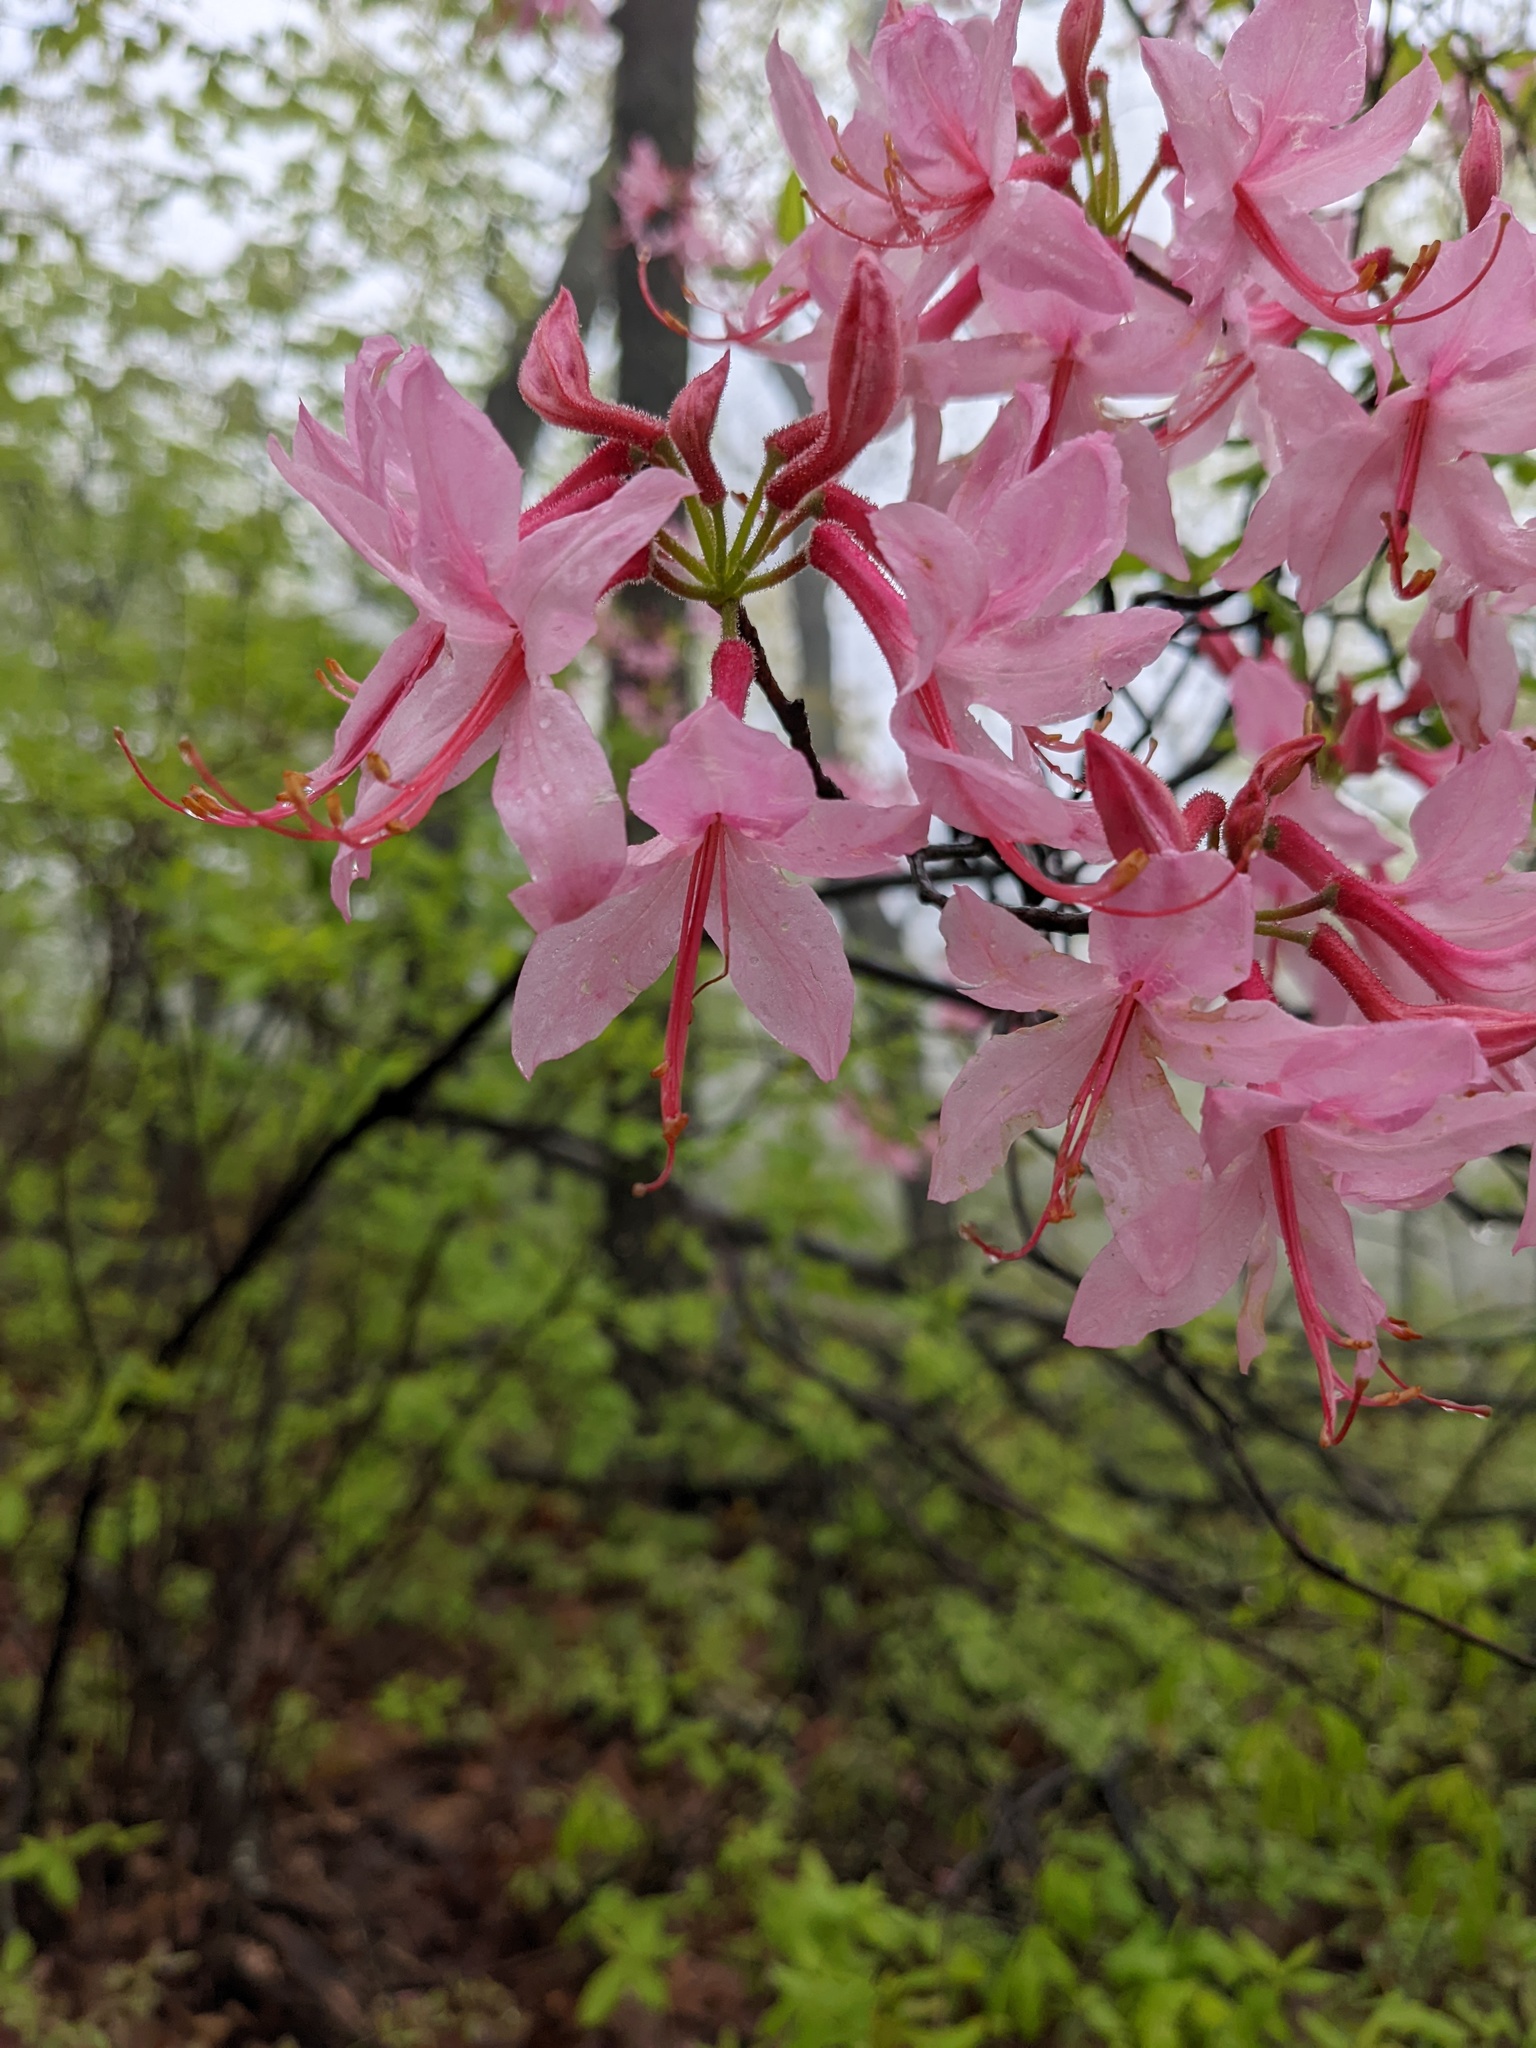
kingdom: Plantae
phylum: Tracheophyta
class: Magnoliopsida
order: Ericales
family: Ericaceae
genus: Rhododendron
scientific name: Rhododendron roseum
